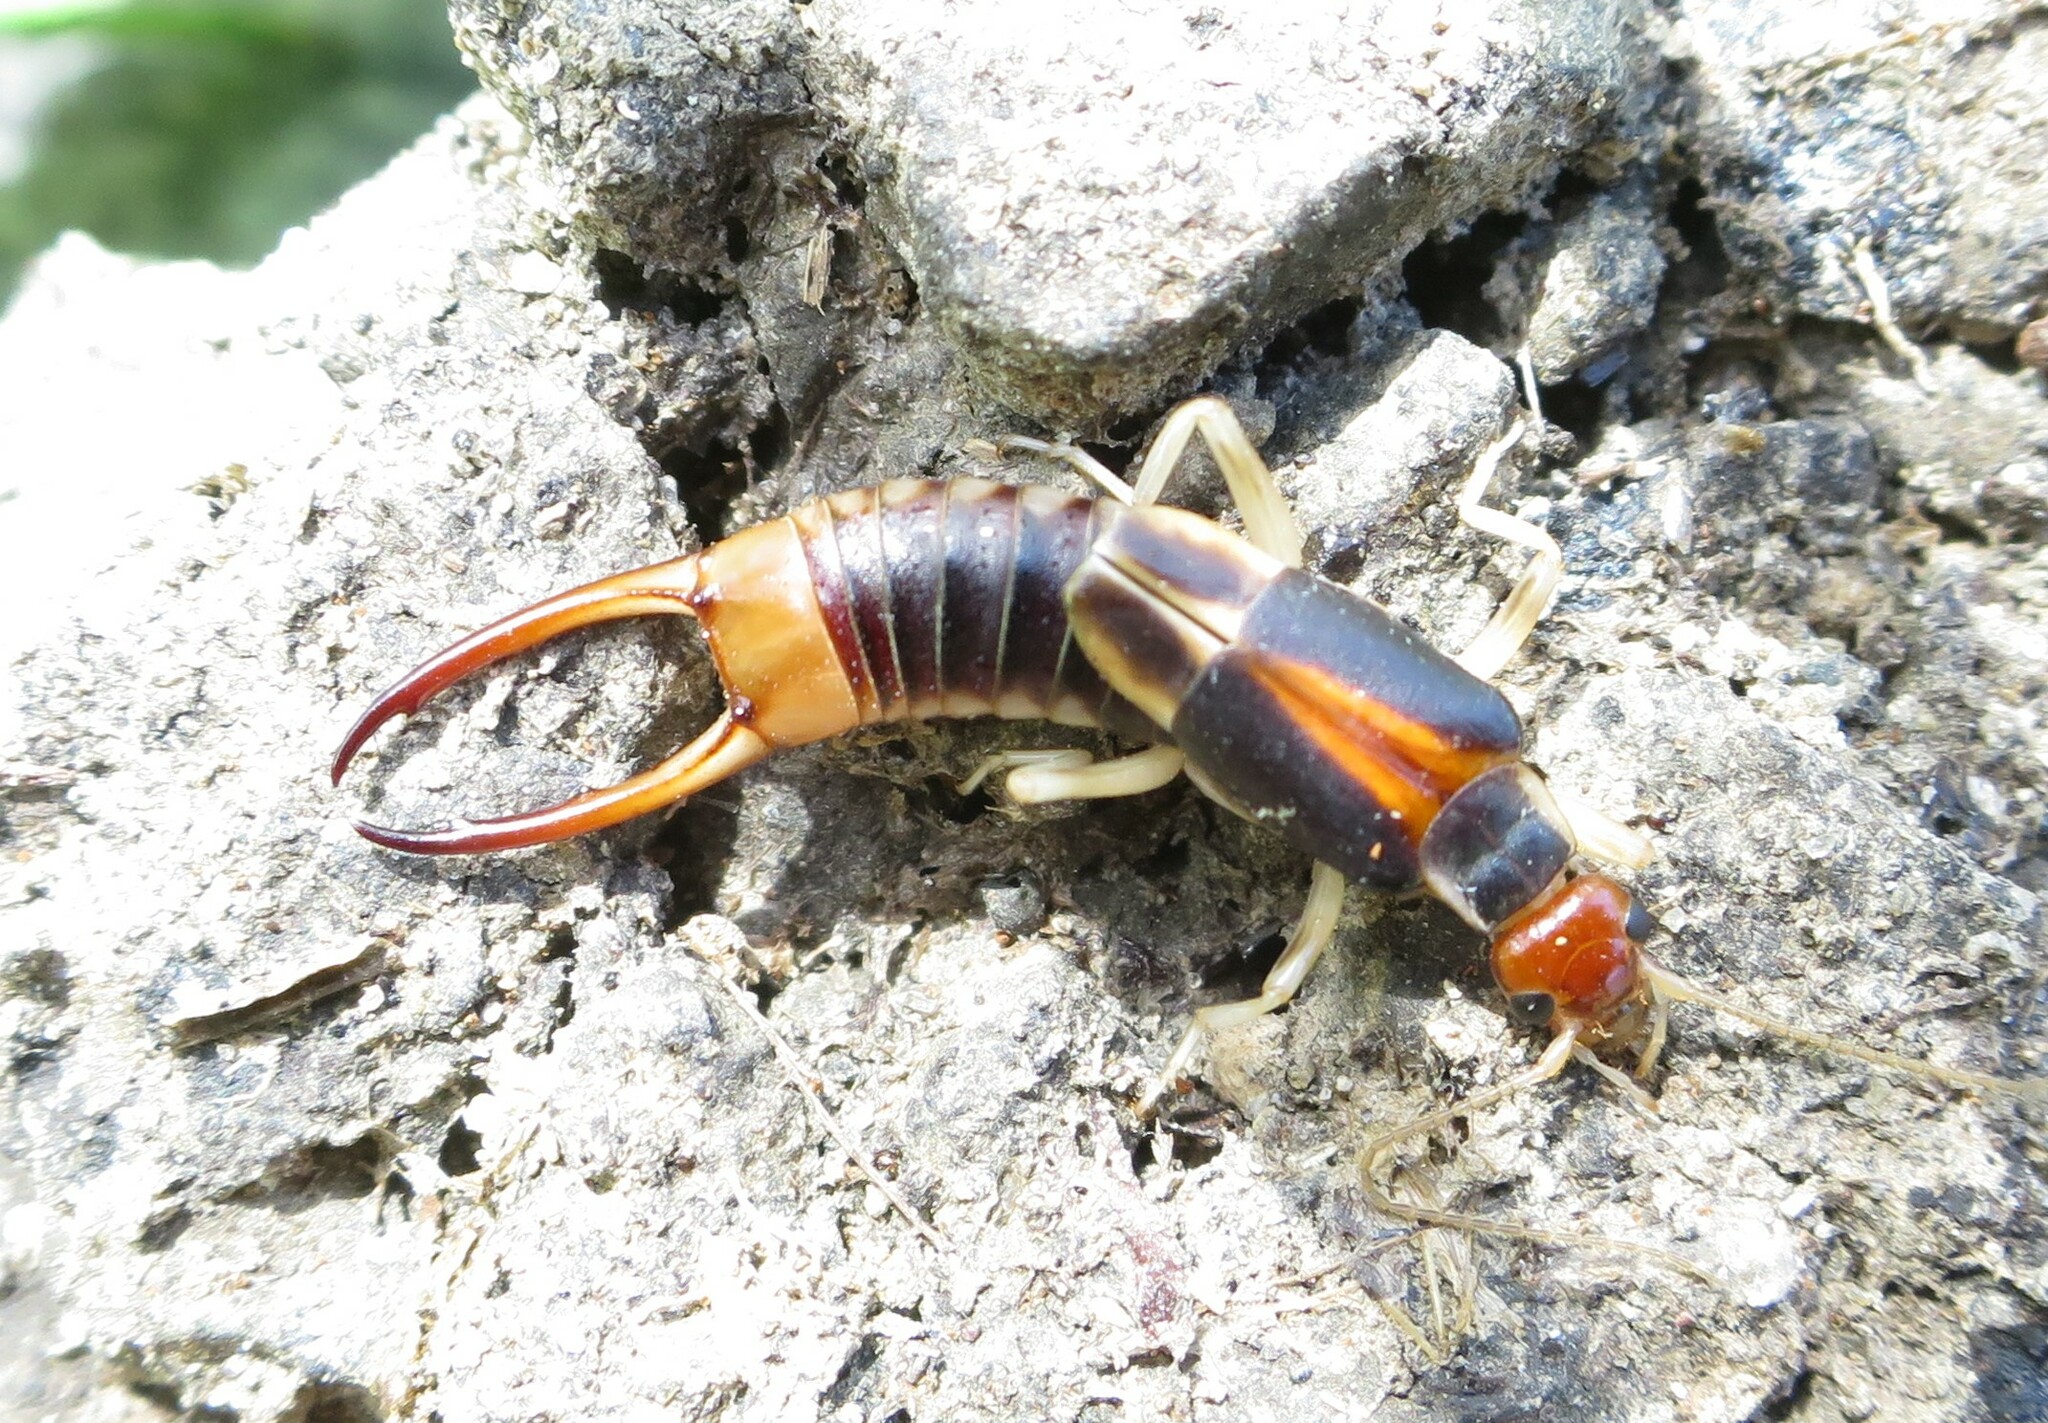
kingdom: Animalia
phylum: Arthropoda
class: Insecta
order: Dermaptera
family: Labiduridae
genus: Labidura
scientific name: Labidura riparia
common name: Striped earwig
